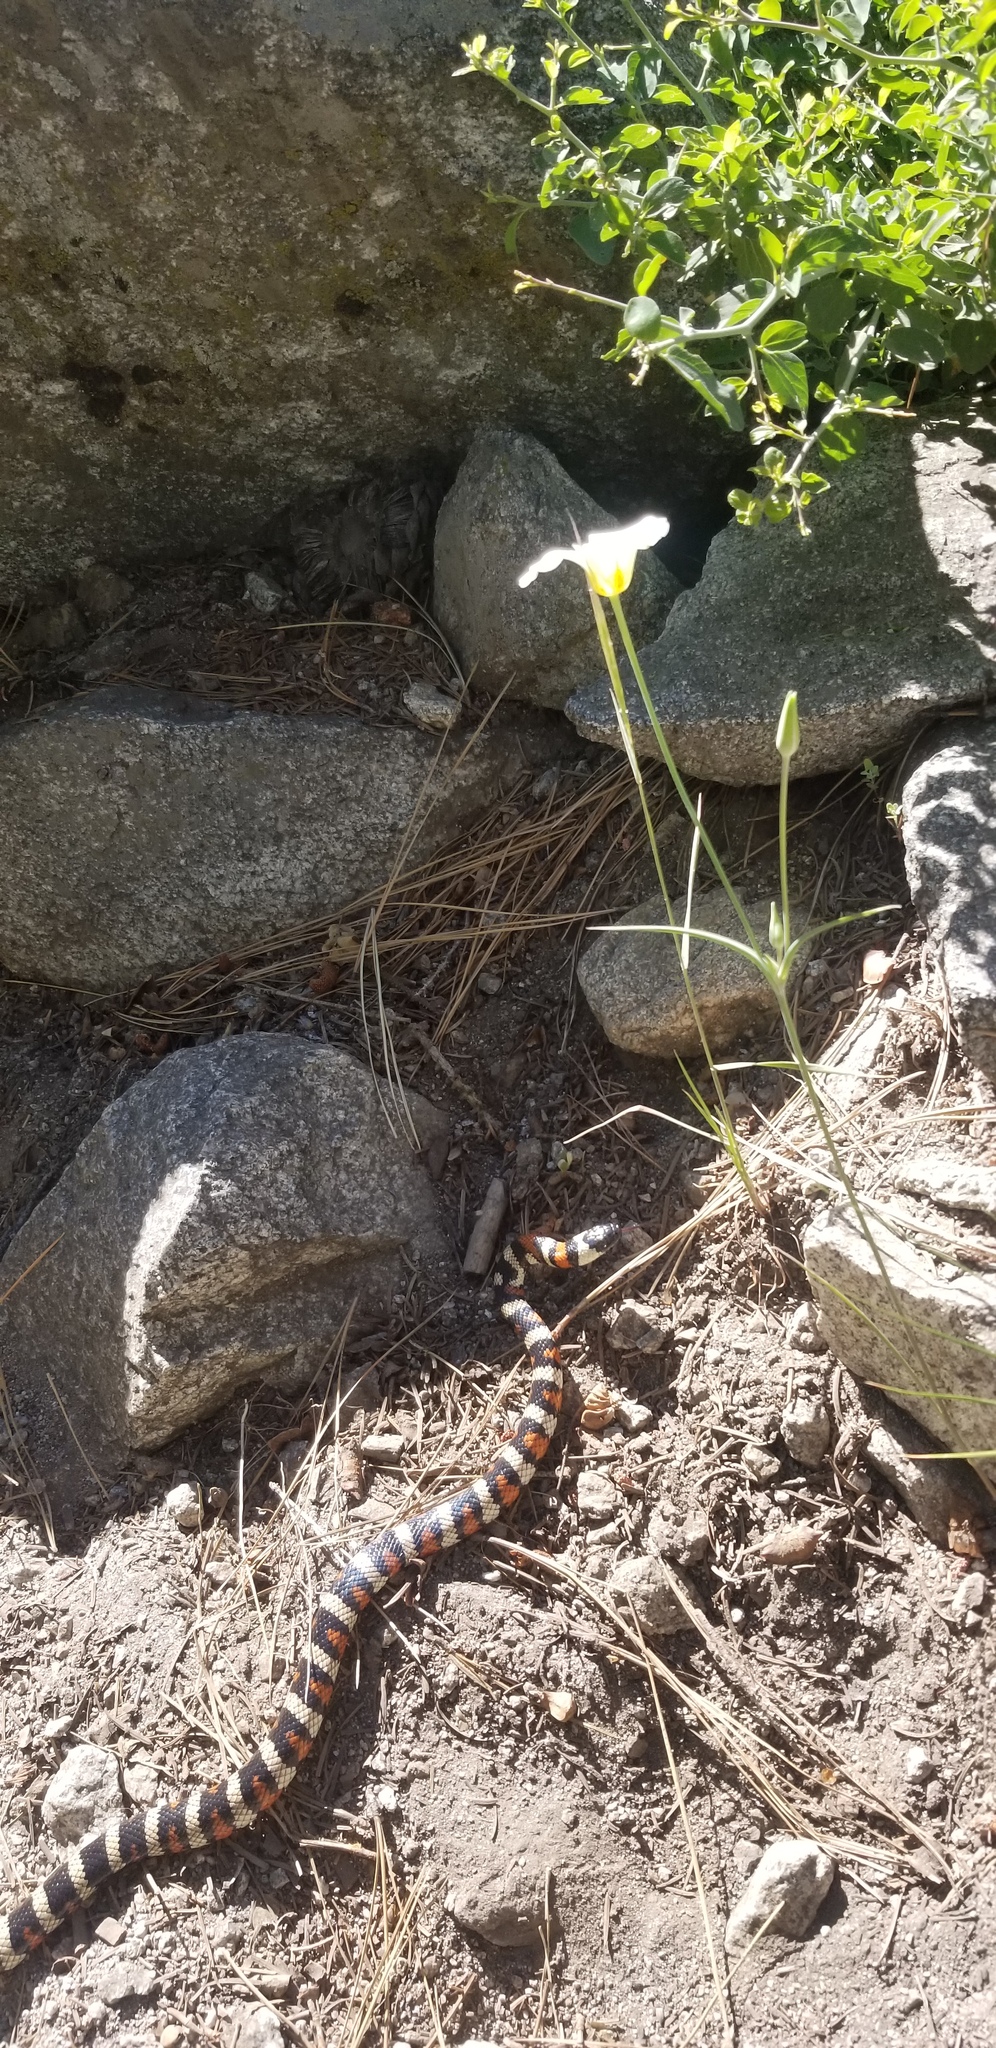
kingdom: Animalia
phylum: Chordata
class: Squamata
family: Colubridae
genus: Lampropeltis
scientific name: Lampropeltis zonata
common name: California mountain kingsnake
